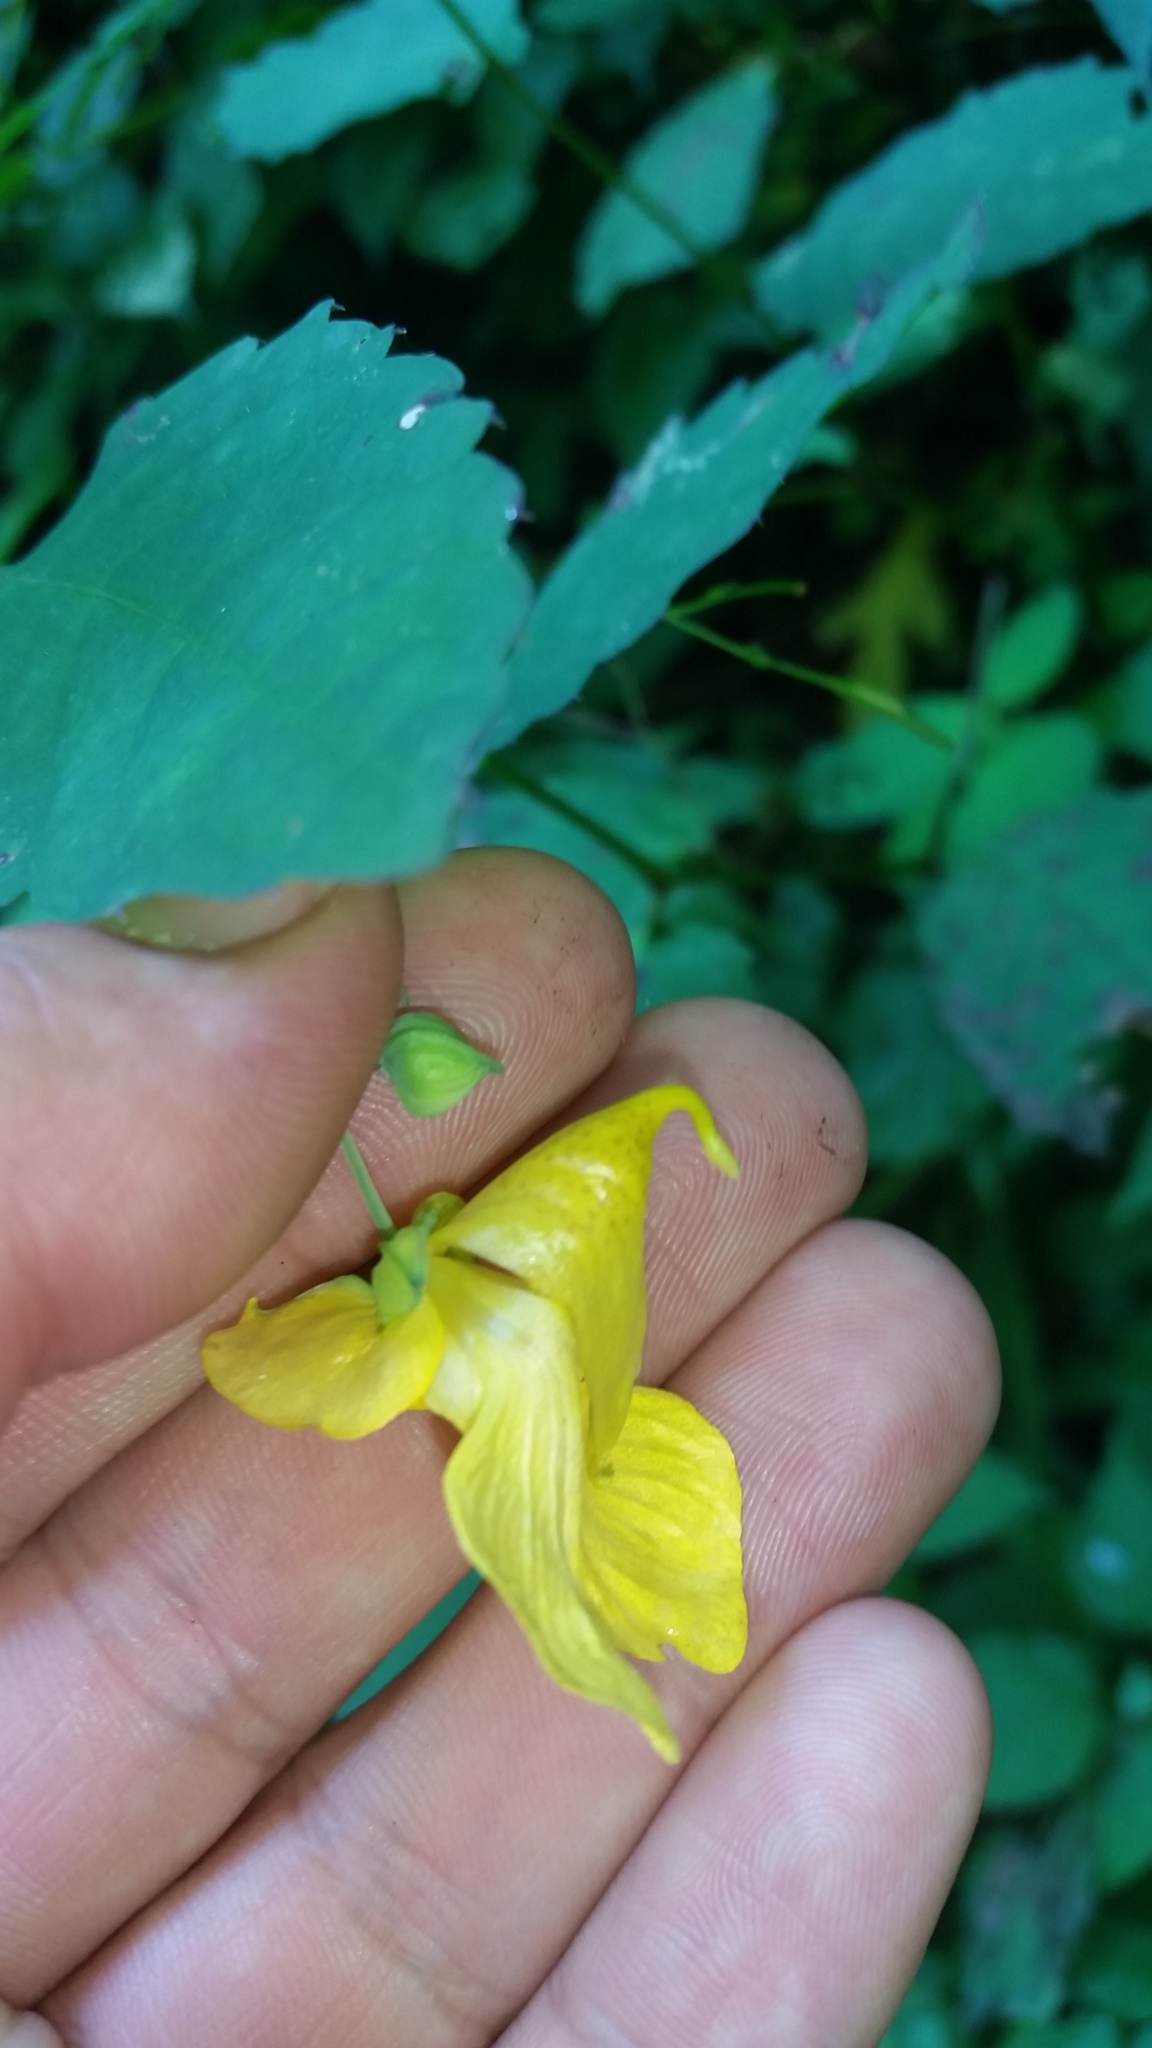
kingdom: Plantae
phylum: Tracheophyta
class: Magnoliopsida
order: Ericales
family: Balsaminaceae
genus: Impatiens
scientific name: Impatiens pallida
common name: Pale snapweed
